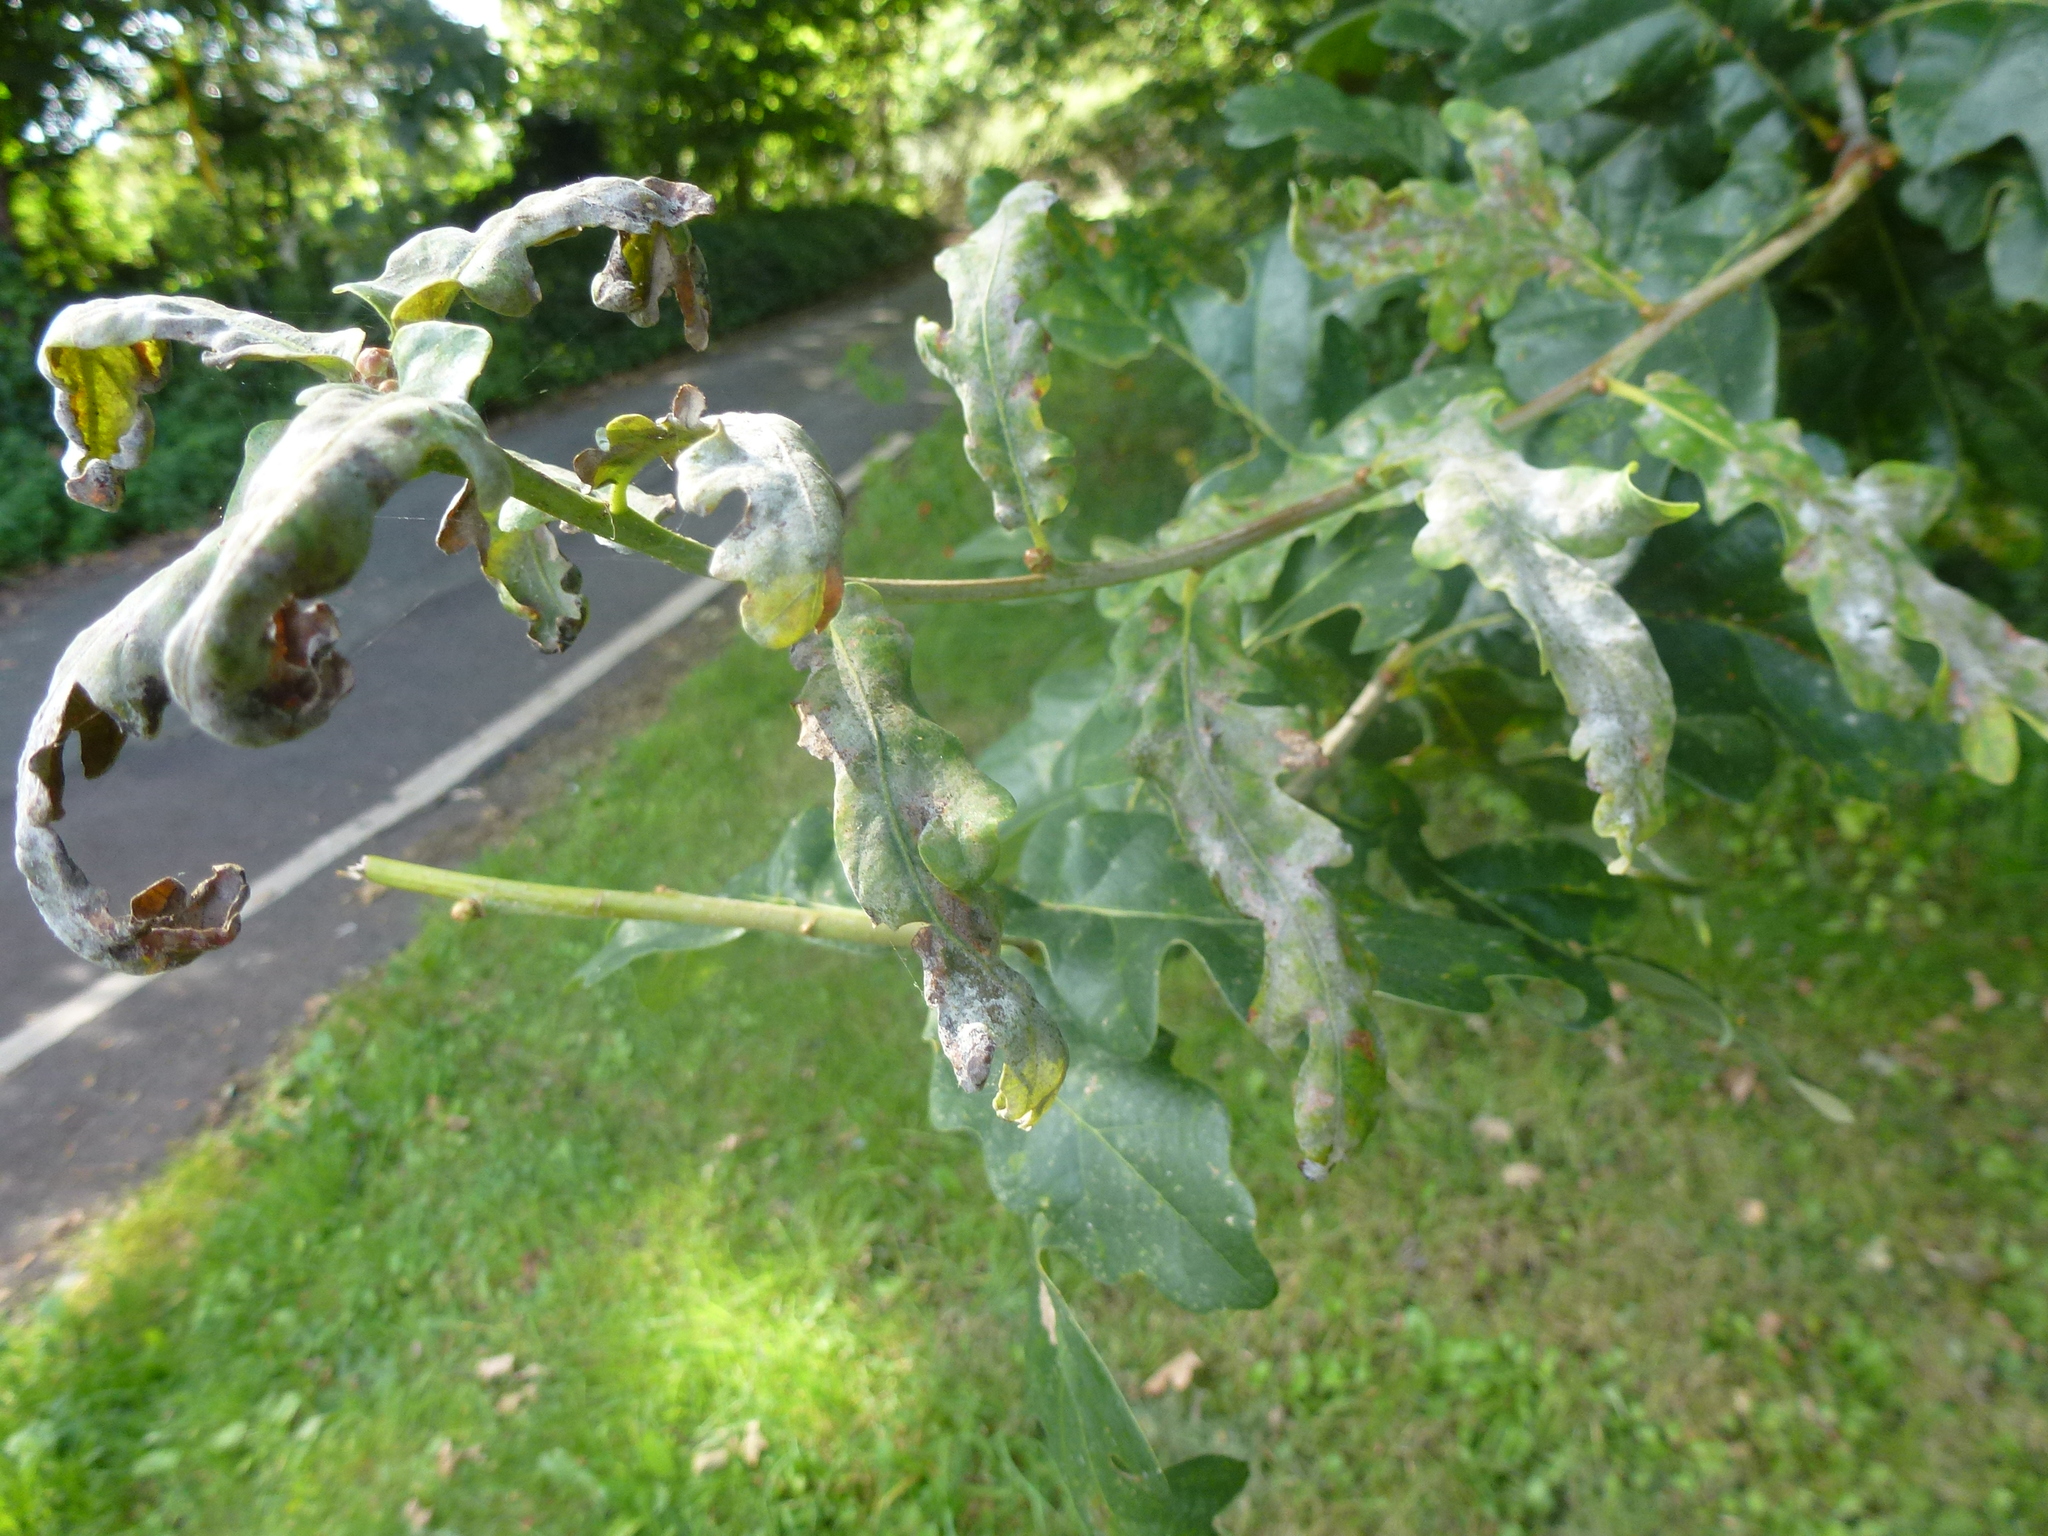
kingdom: Fungi
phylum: Ascomycota
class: Leotiomycetes
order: Helotiales
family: Erysiphaceae
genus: Erysiphe
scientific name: Erysiphe alphitoides
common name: Oak mildew
